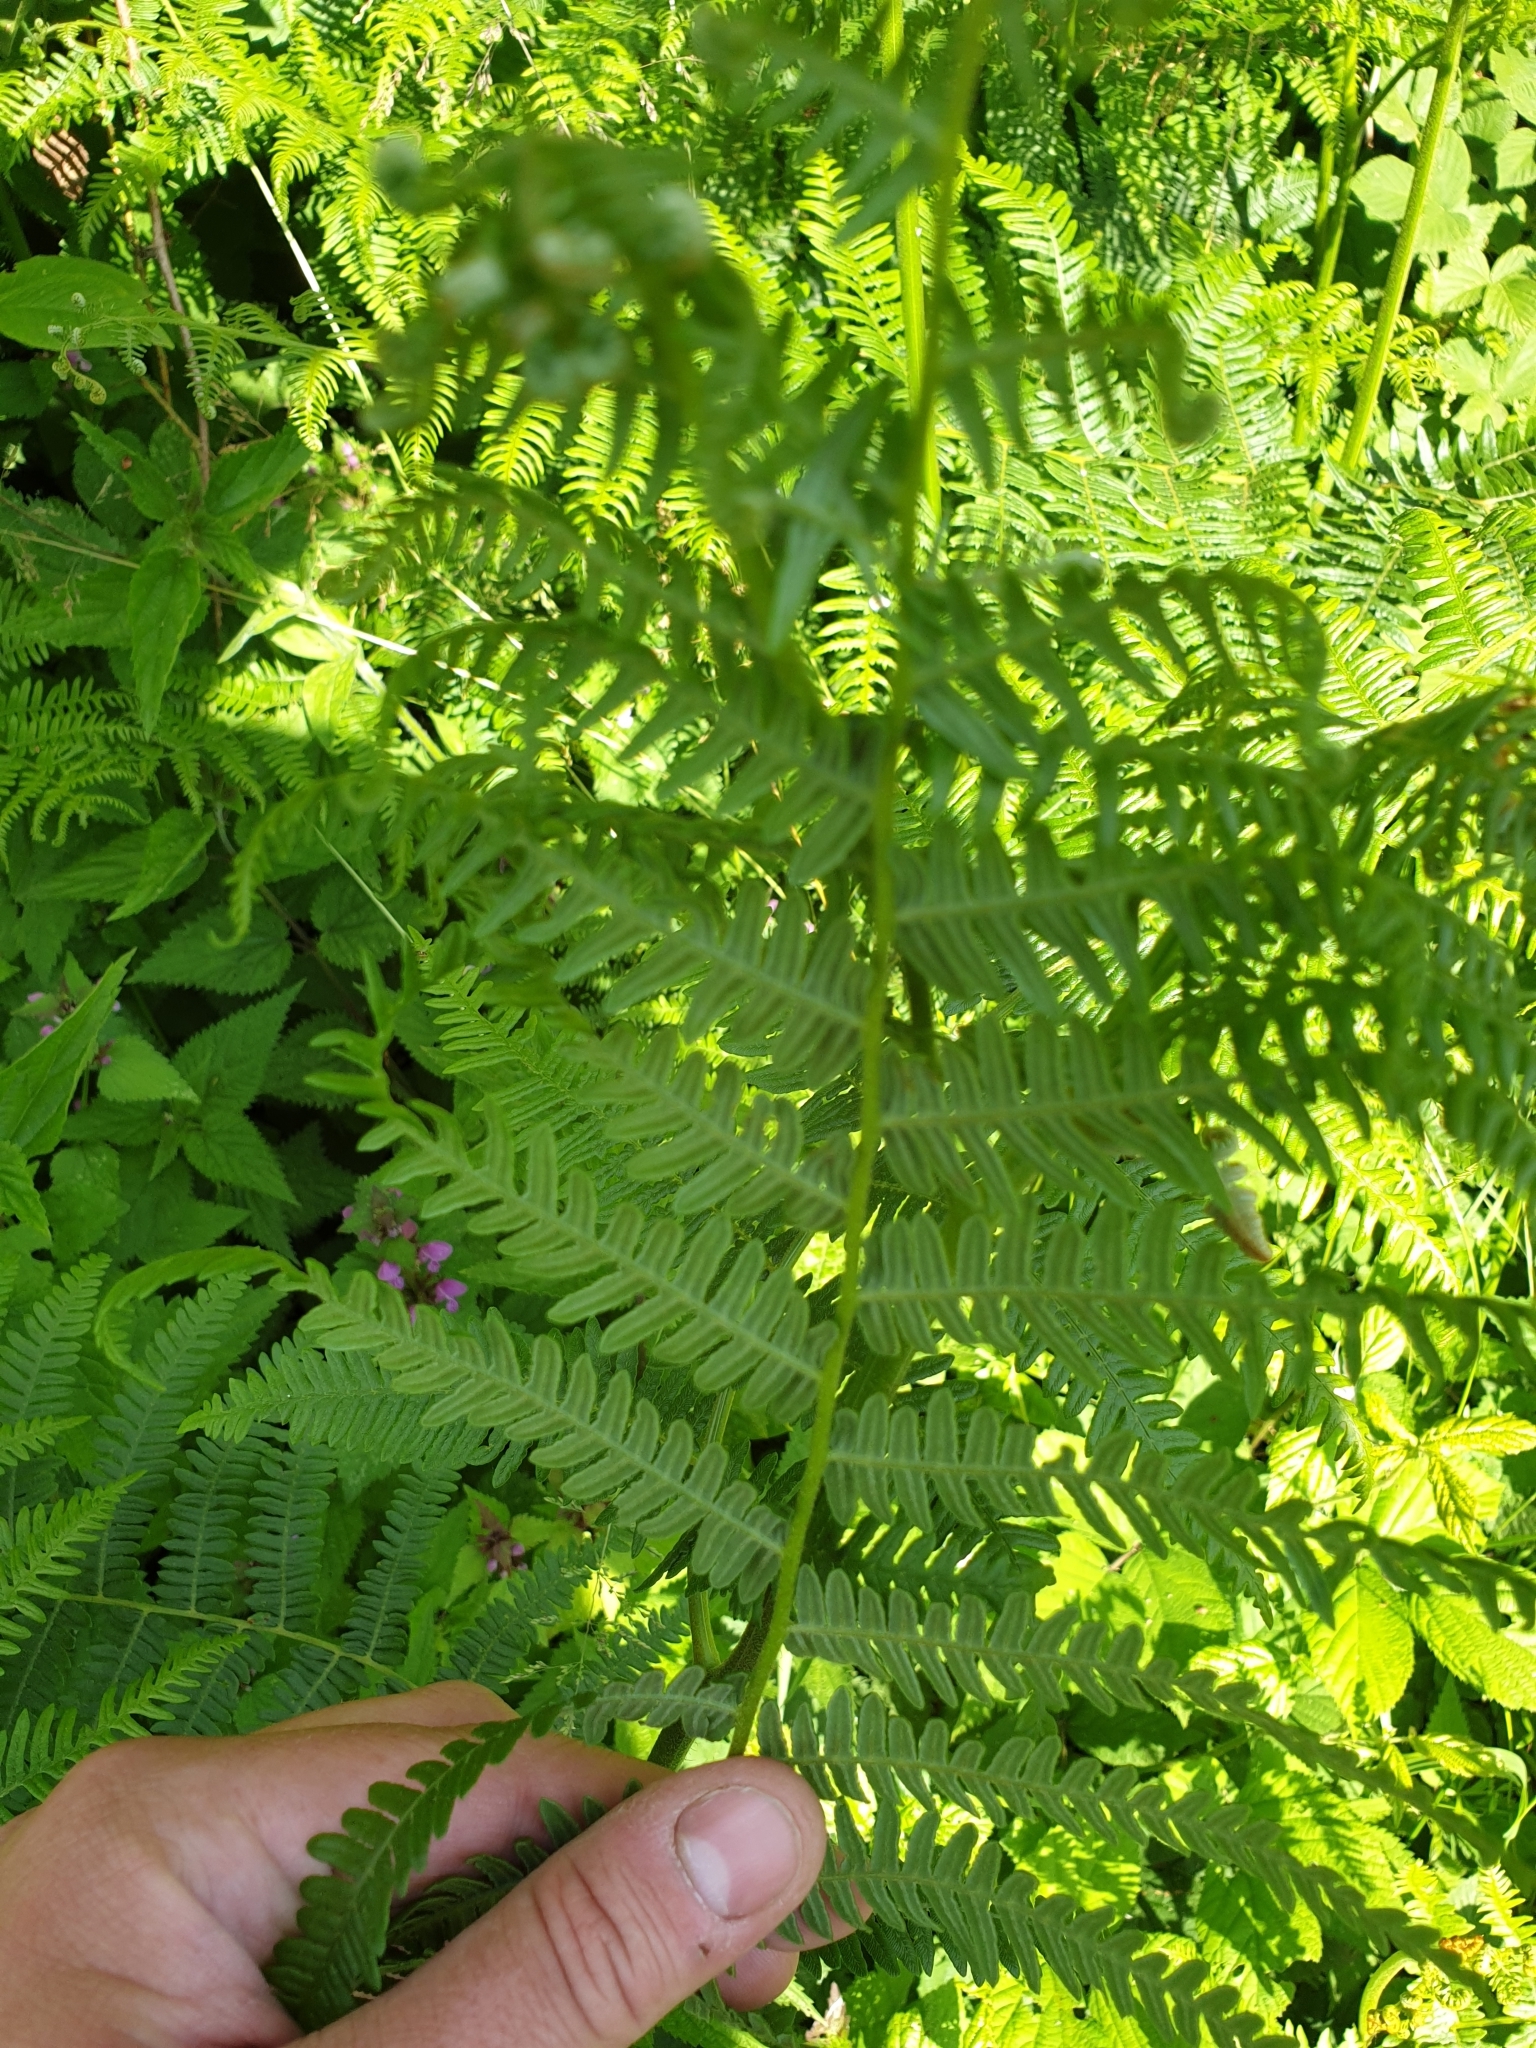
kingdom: Plantae
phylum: Tracheophyta
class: Polypodiopsida
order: Polypodiales
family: Dennstaedtiaceae
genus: Pteridium
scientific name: Pteridium aquilinum
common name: Bracken
